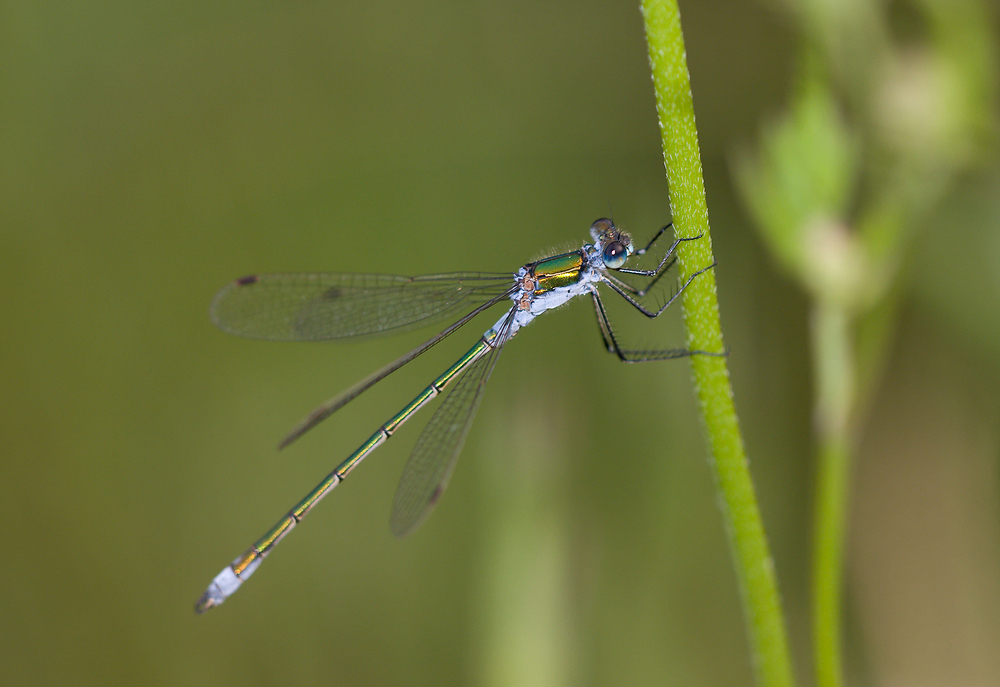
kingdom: Animalia
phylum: Arthropoda
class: Insecta
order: Odonata
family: Lestidae
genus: Lestes
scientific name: Lestes sponsa
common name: Common spreadwing
